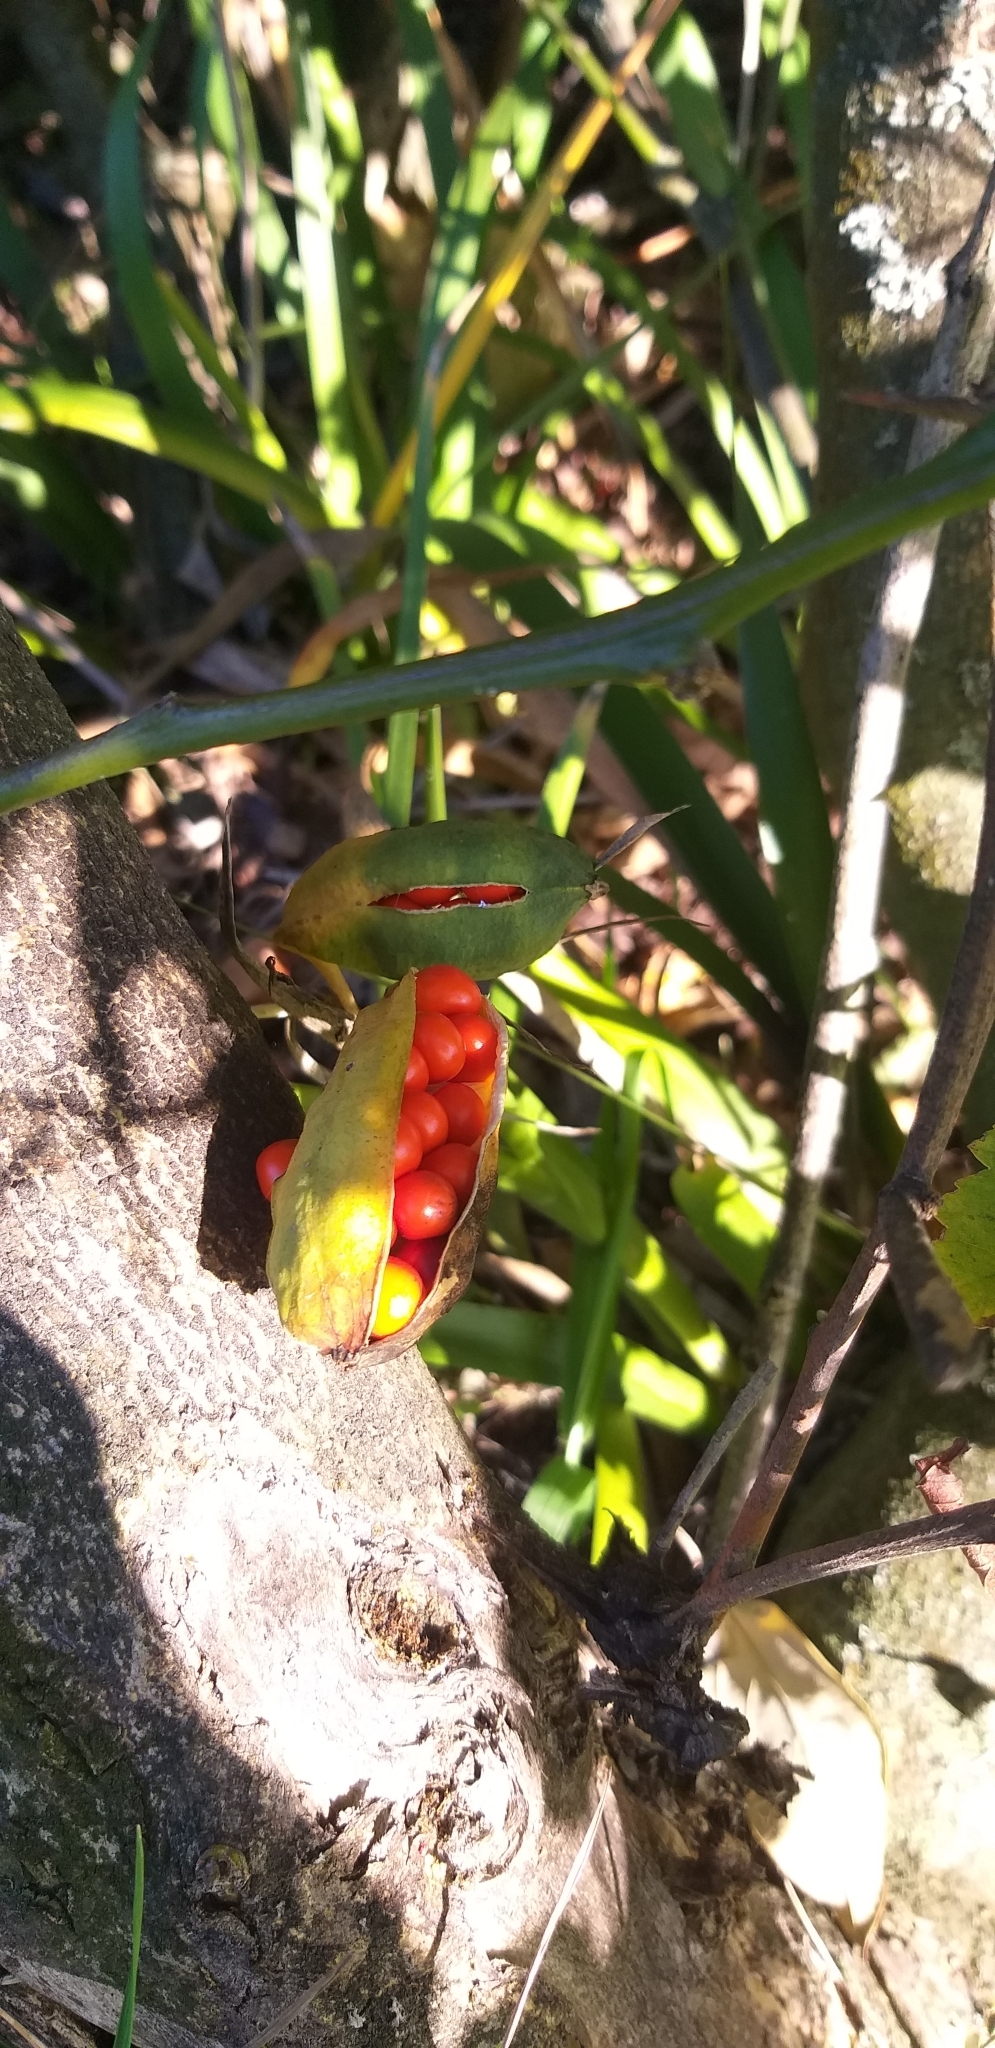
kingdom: Plantae
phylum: Tracheophyta
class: Liliopsida
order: Asparagales
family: Iridaceae
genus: Iris
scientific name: Iris foetidissima
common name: Stinking iris
